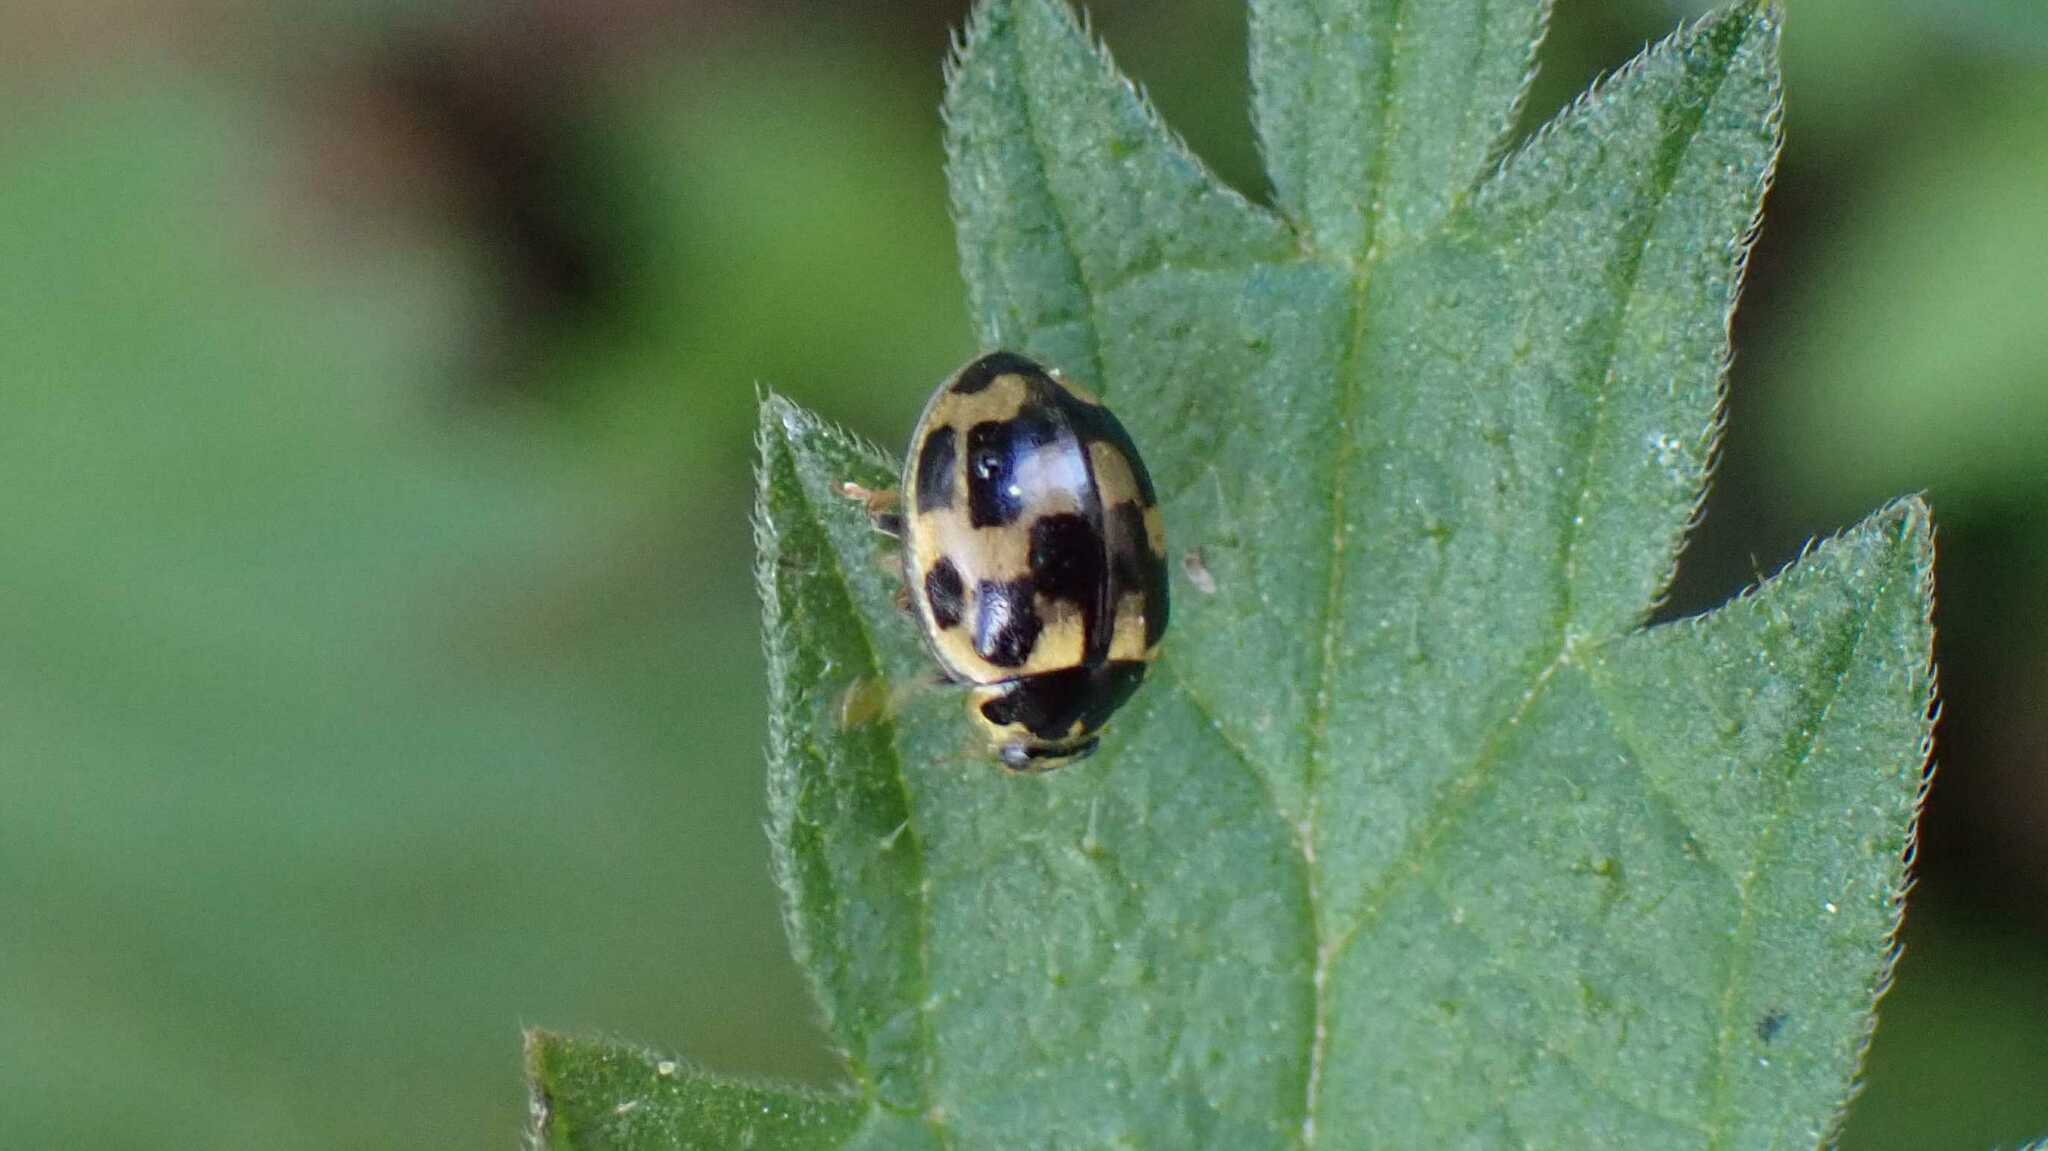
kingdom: Animalia
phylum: Arthropoda
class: Insecta
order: Coleoptera
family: Coccinellidae
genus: Propylaea
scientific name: Propylaea quatuordecimpunctata
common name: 14-spotted ladybird beetle
